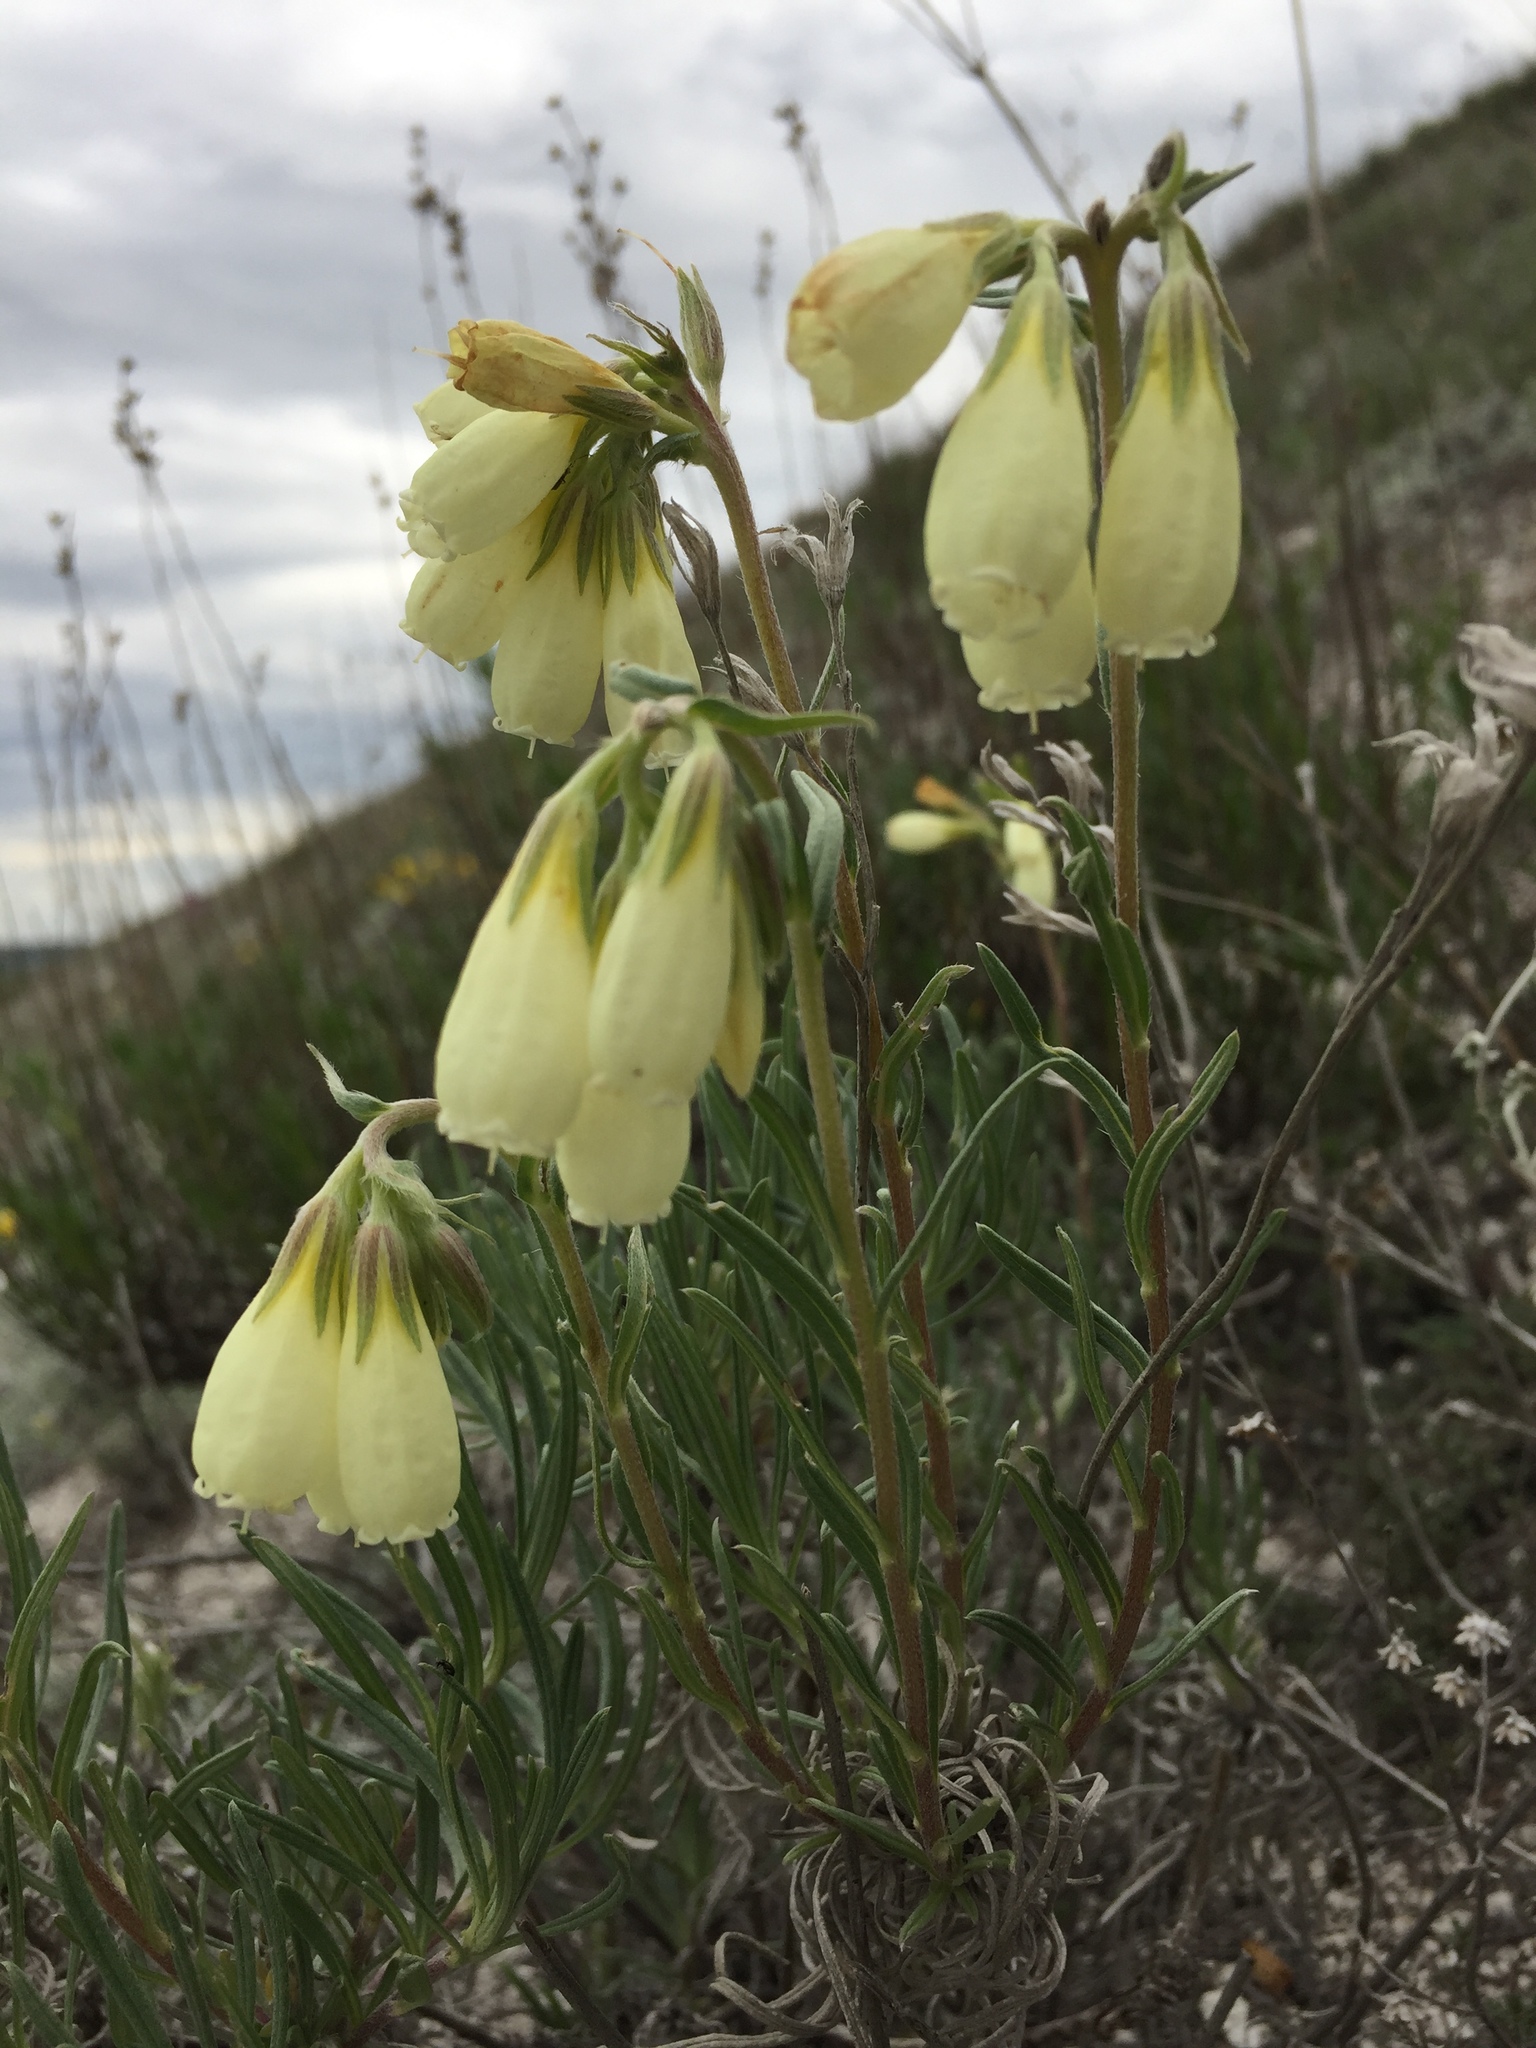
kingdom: Plantae
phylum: Tracheophyta
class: Magnoliopsida
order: Boraginales
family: Boraginaceae
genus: Onosma
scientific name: Onosma simplicissima
